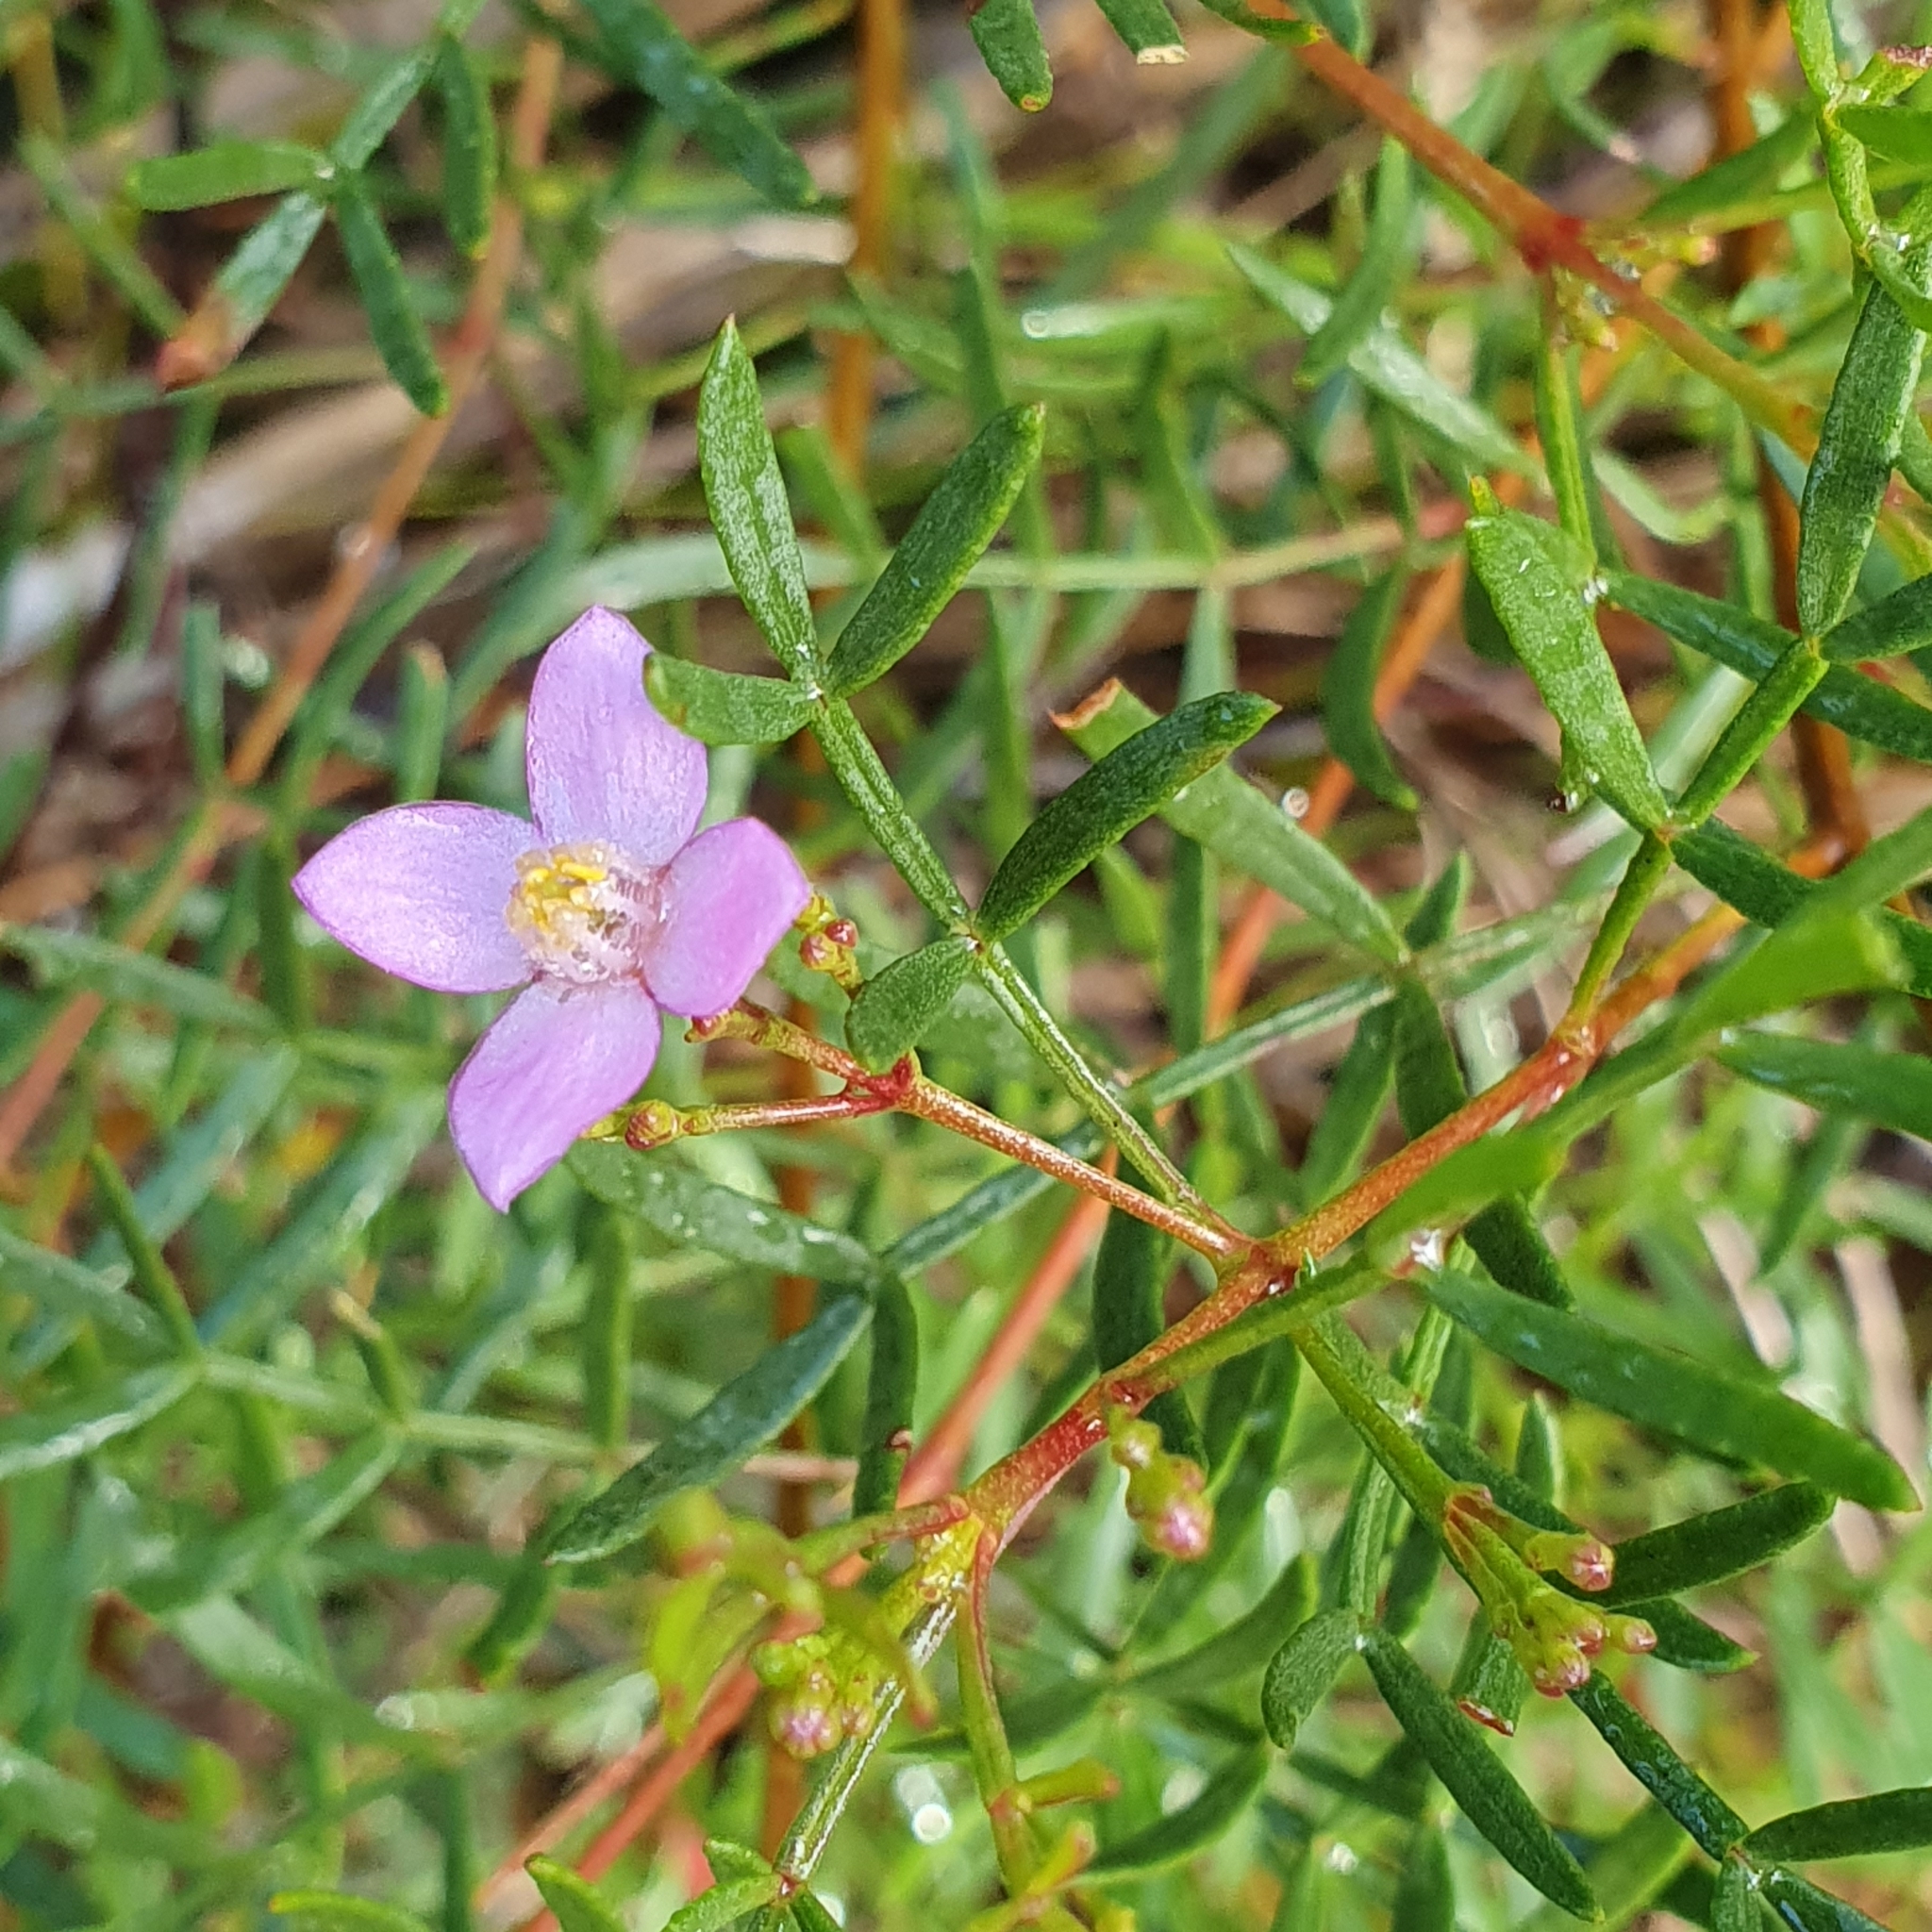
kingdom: Plantae
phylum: Tracheophyta
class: Magnoliopsida
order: Sapindales
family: Rutaceae
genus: Boronia
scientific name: Boronia pinnata
